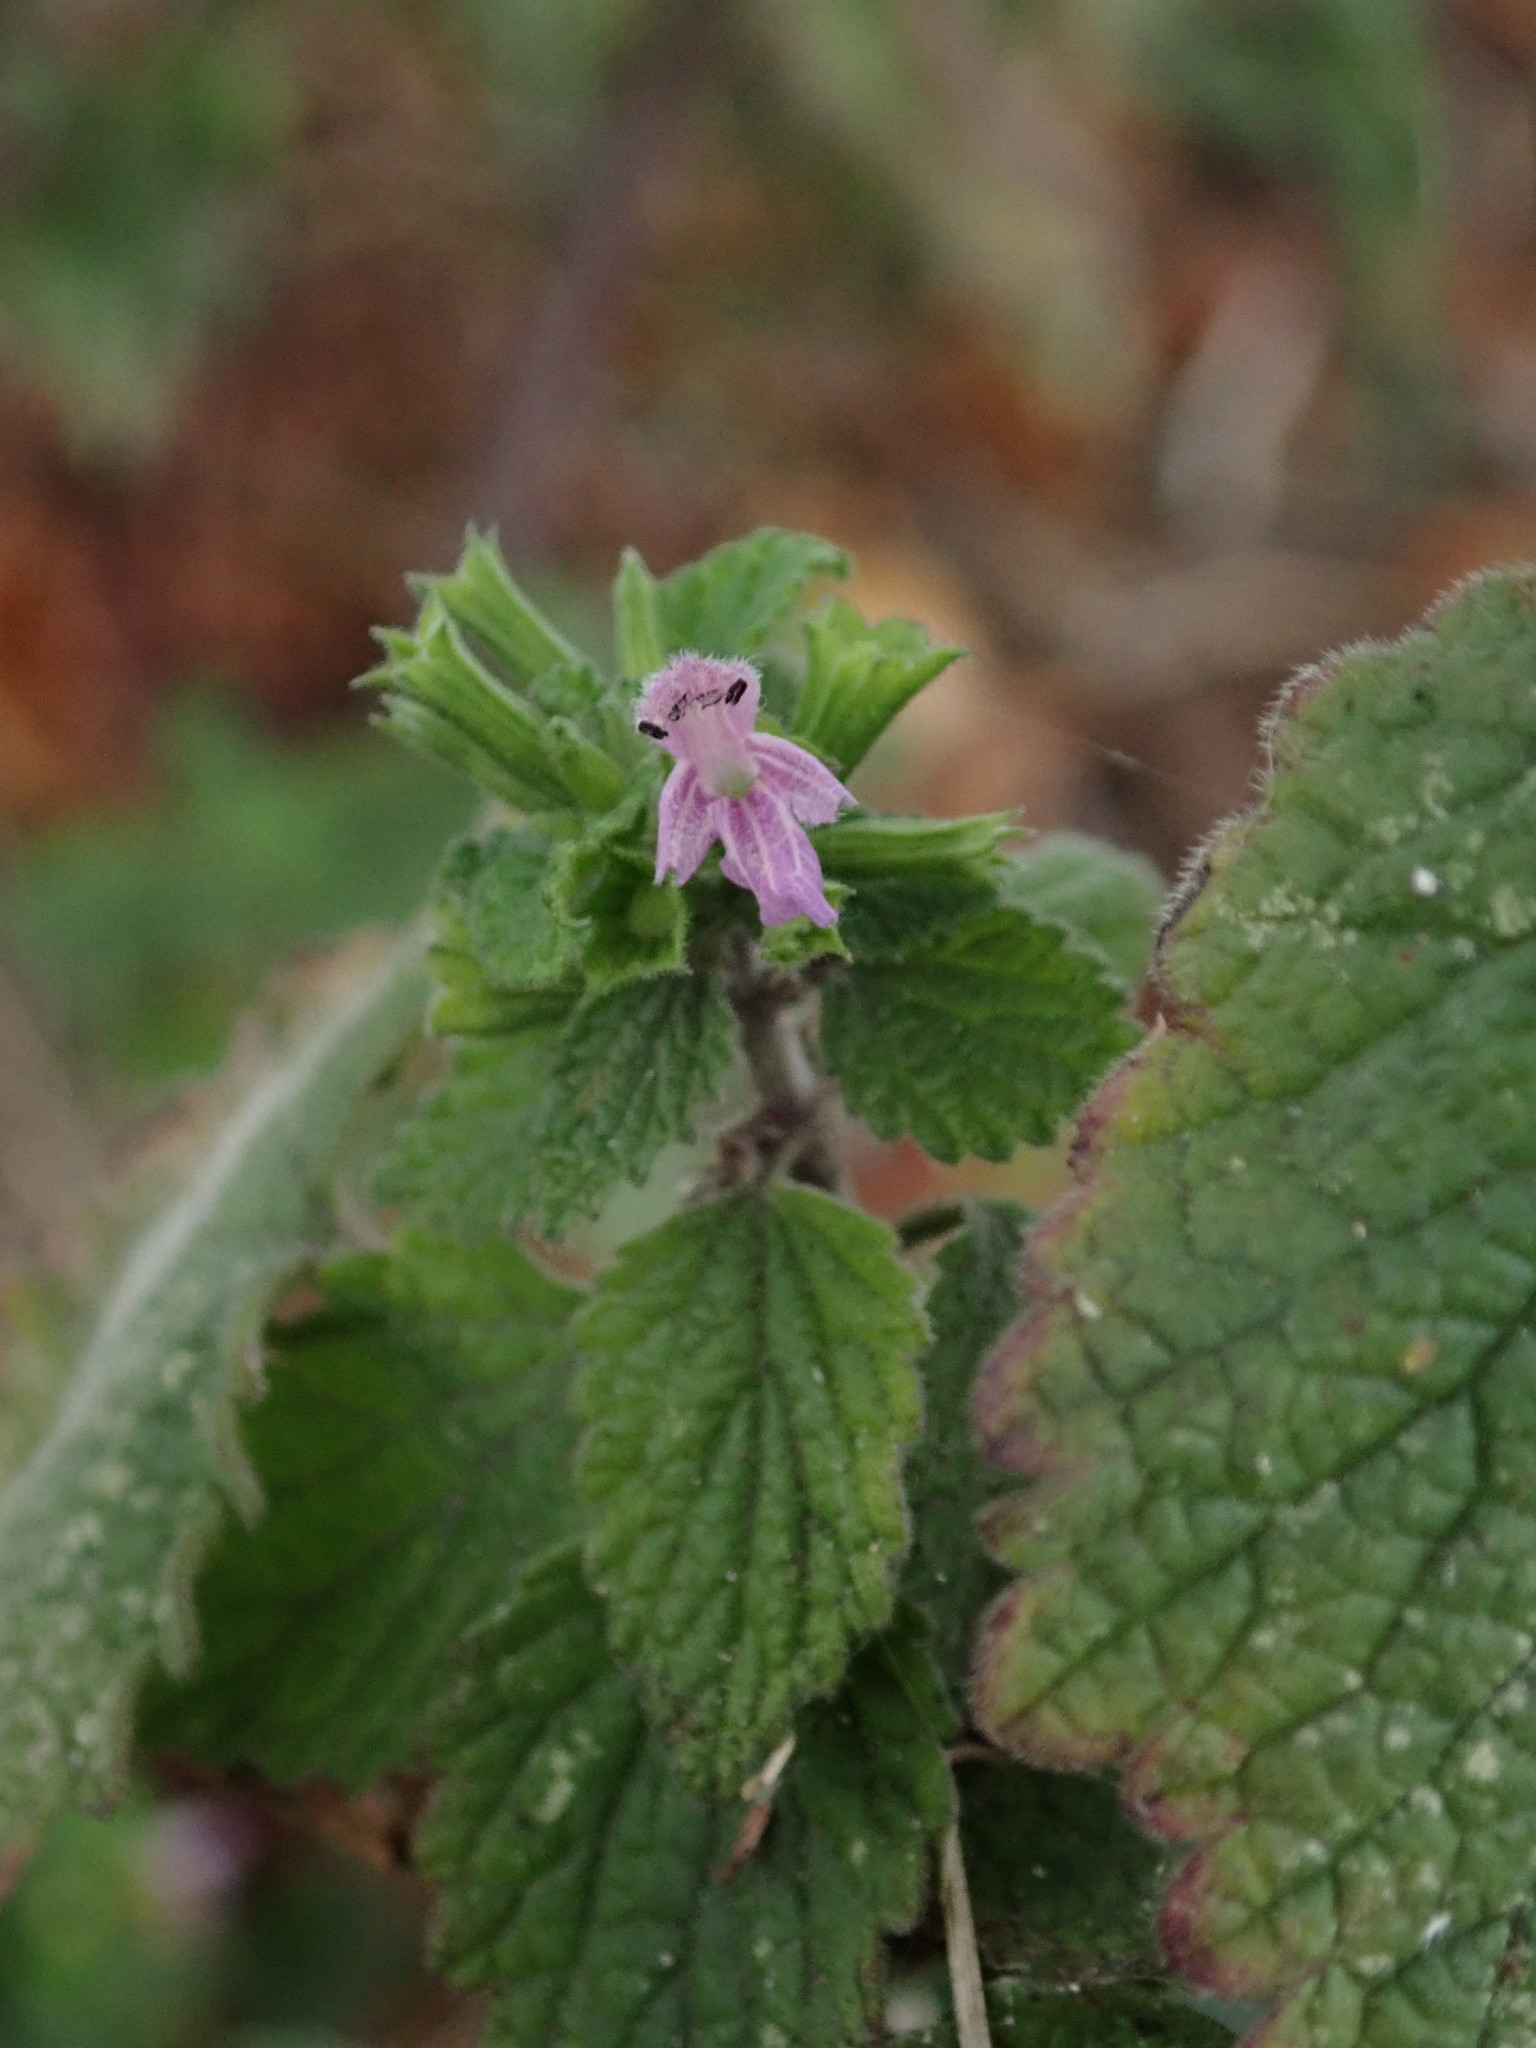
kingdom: Plantae
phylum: Tracheophyta
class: Magnoliopsida
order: Lamiales
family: Lamiaceae
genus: Ballota
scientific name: Ballota nigra
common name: Black horehound
